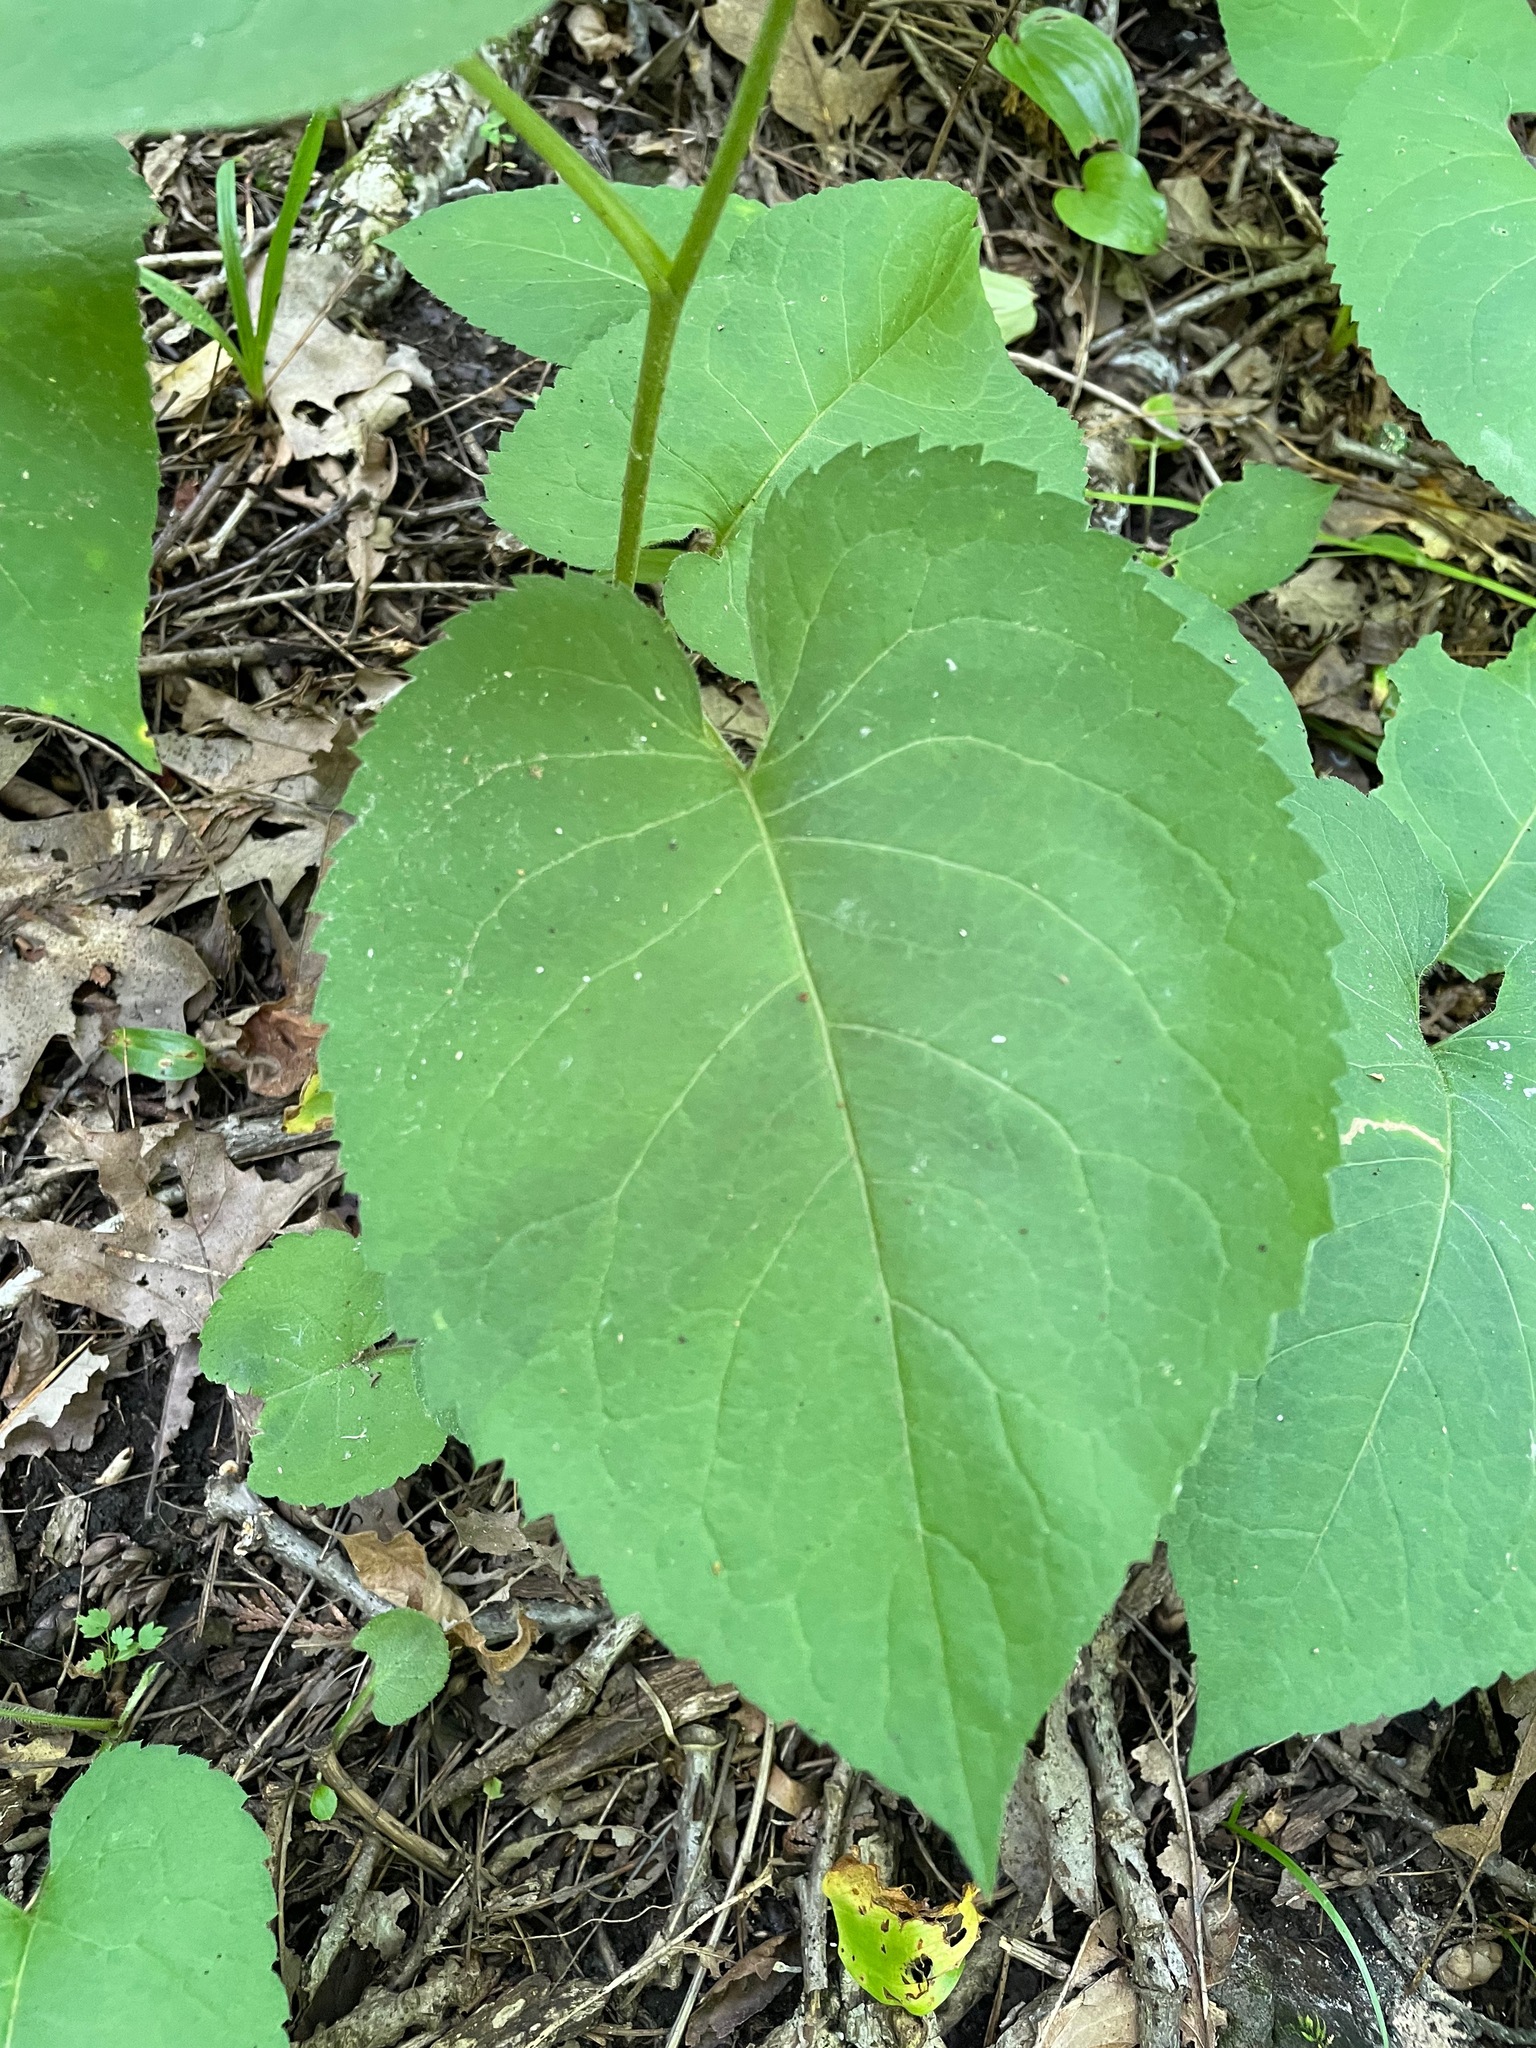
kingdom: Plantae
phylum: Tracheophyta
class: Magnoliopsida
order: Asterales
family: Asteraceae
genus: Eurybia
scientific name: Eurybia macrophylla
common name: Big-leaved aster
